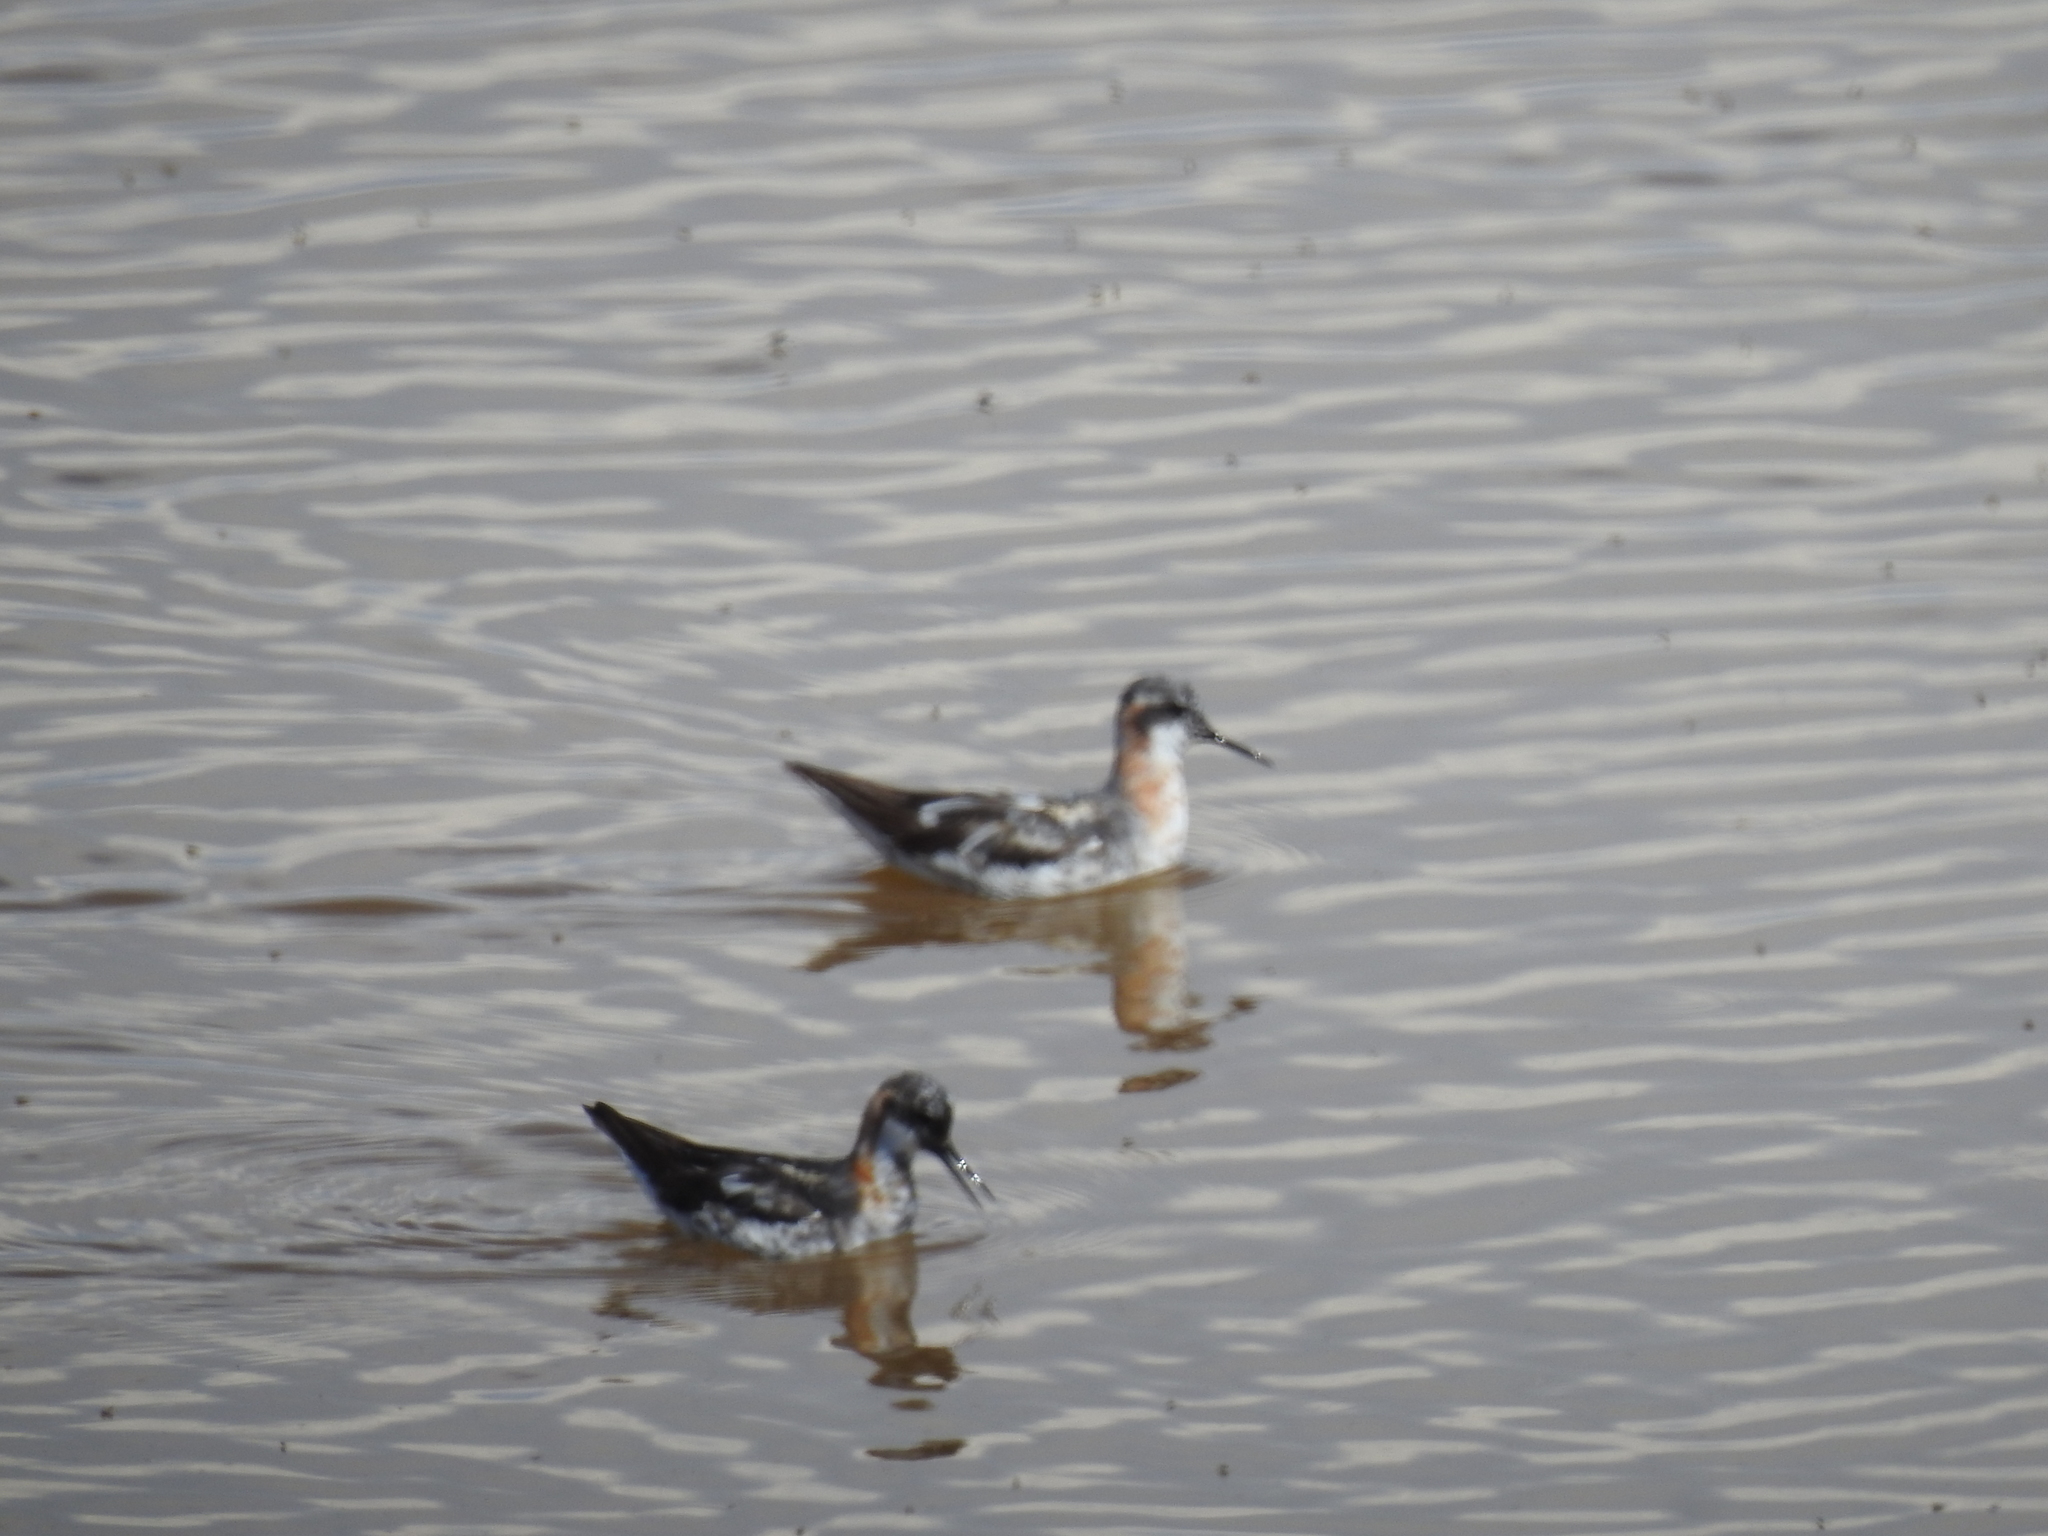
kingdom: Animalia
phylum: Chordata
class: Aves
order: Charadriiformes
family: Scolopacidae
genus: Phalaropus
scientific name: Phalaropus lobatus
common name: Red-necked phalarope
